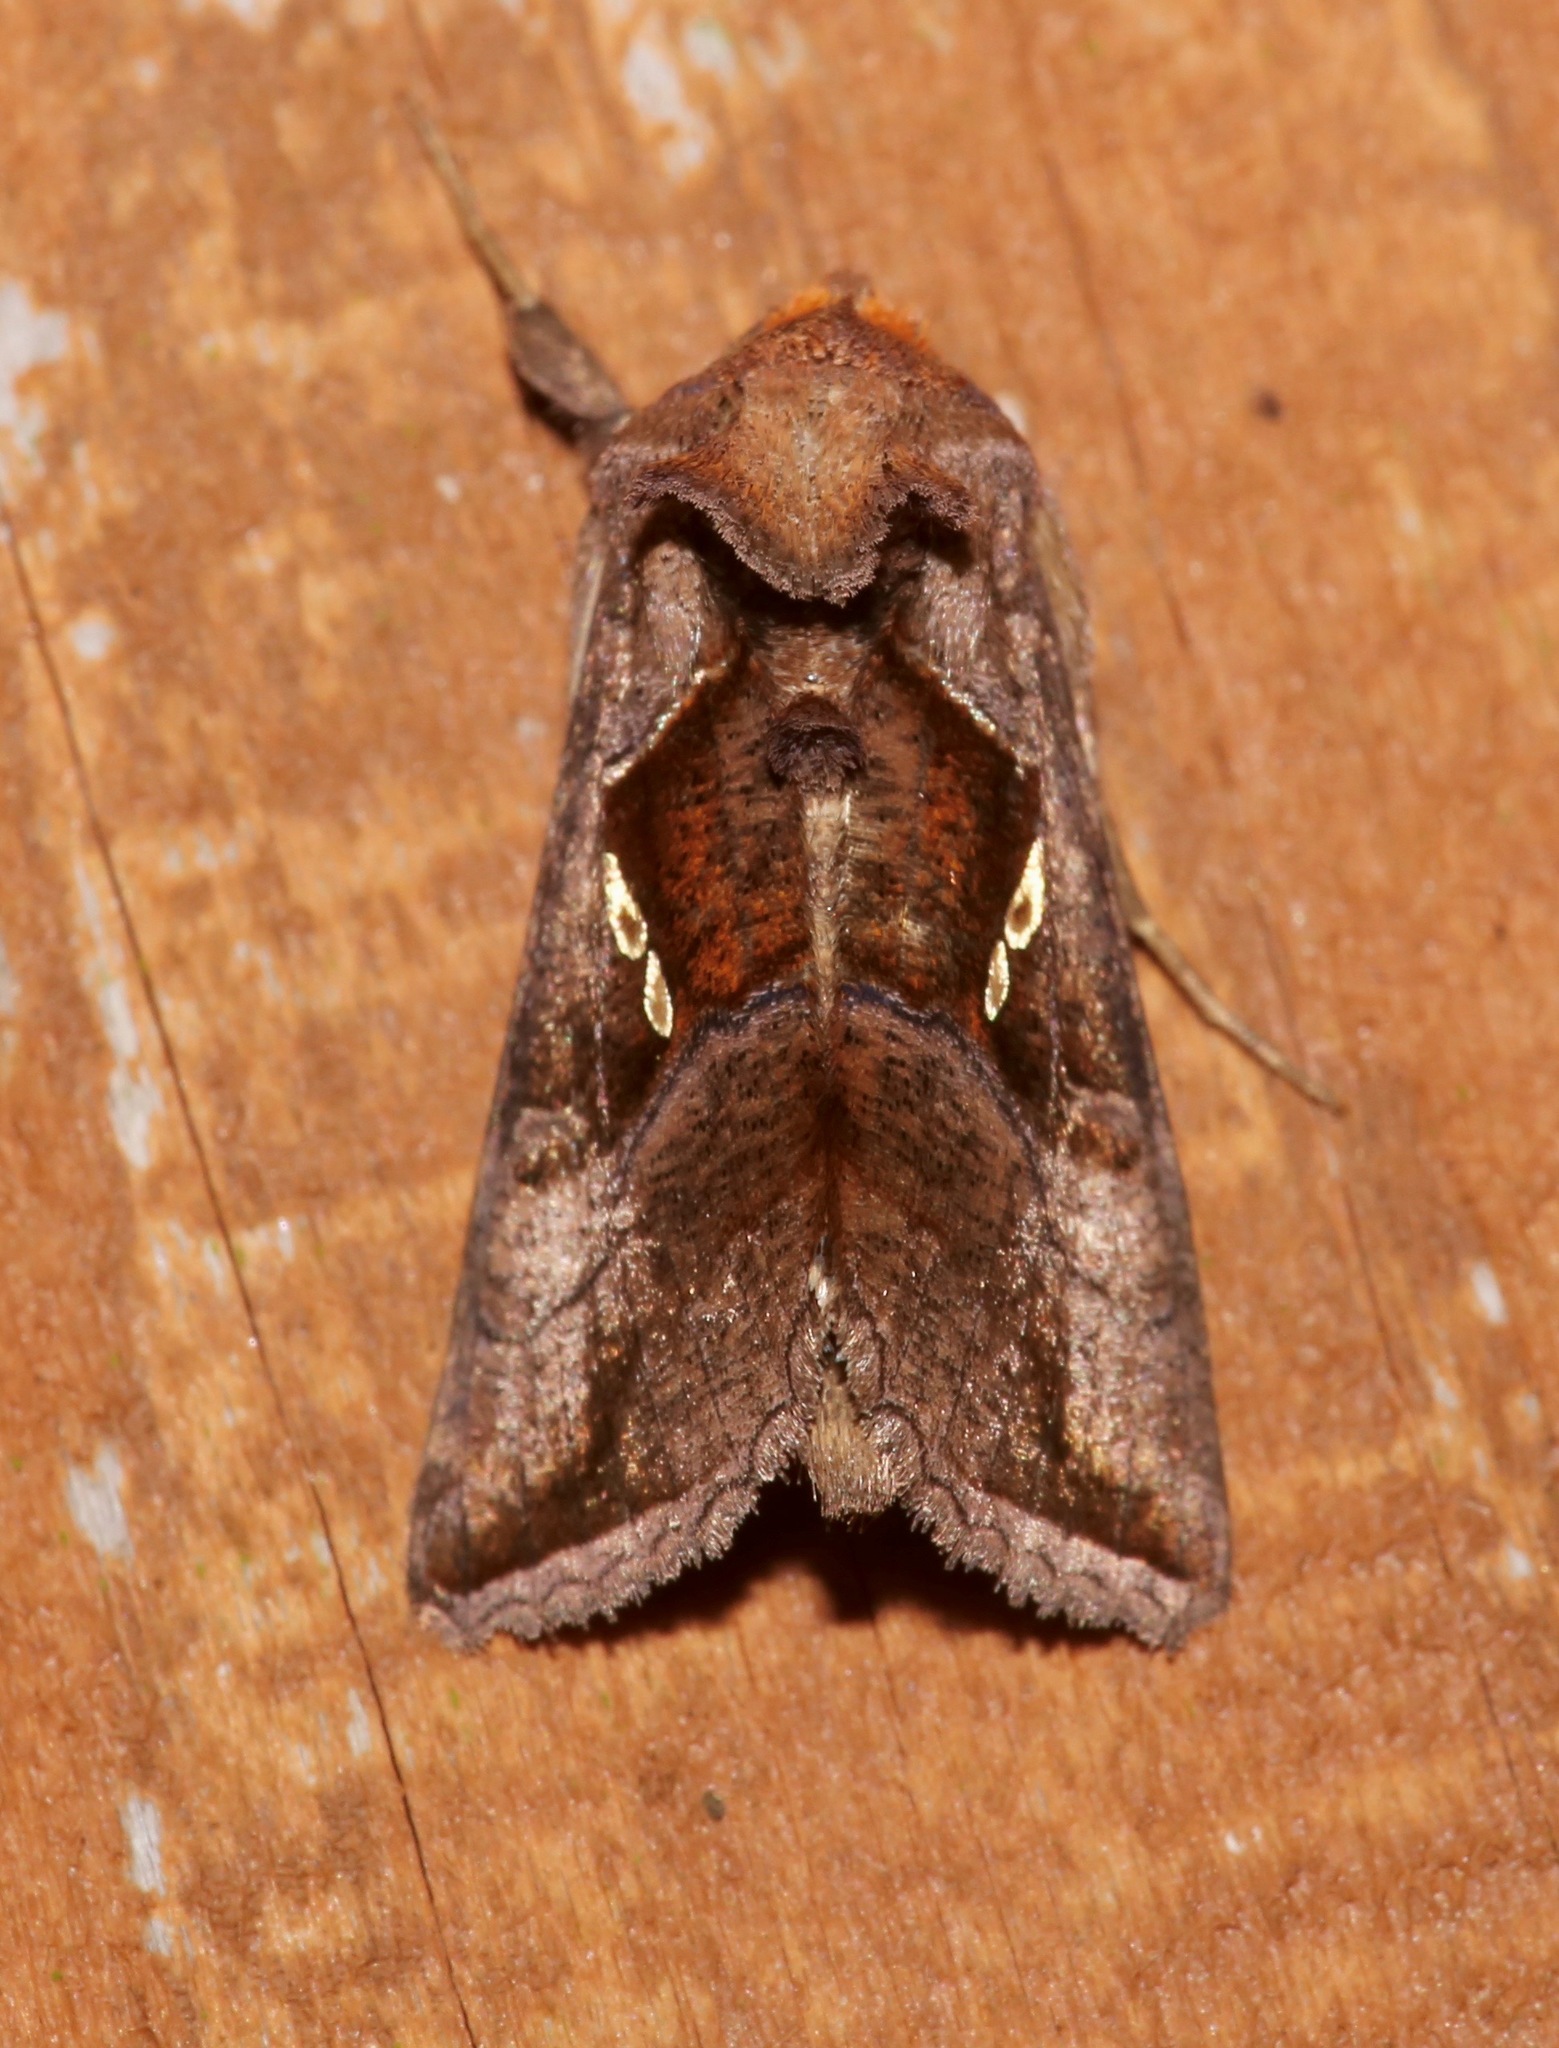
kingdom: Animalia
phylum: Arthropoda
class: Insecta
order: Lepidoptera
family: Noctuidae
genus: Enigmogramma
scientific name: Enigmogramma basigera
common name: Pink-washed looper moth
